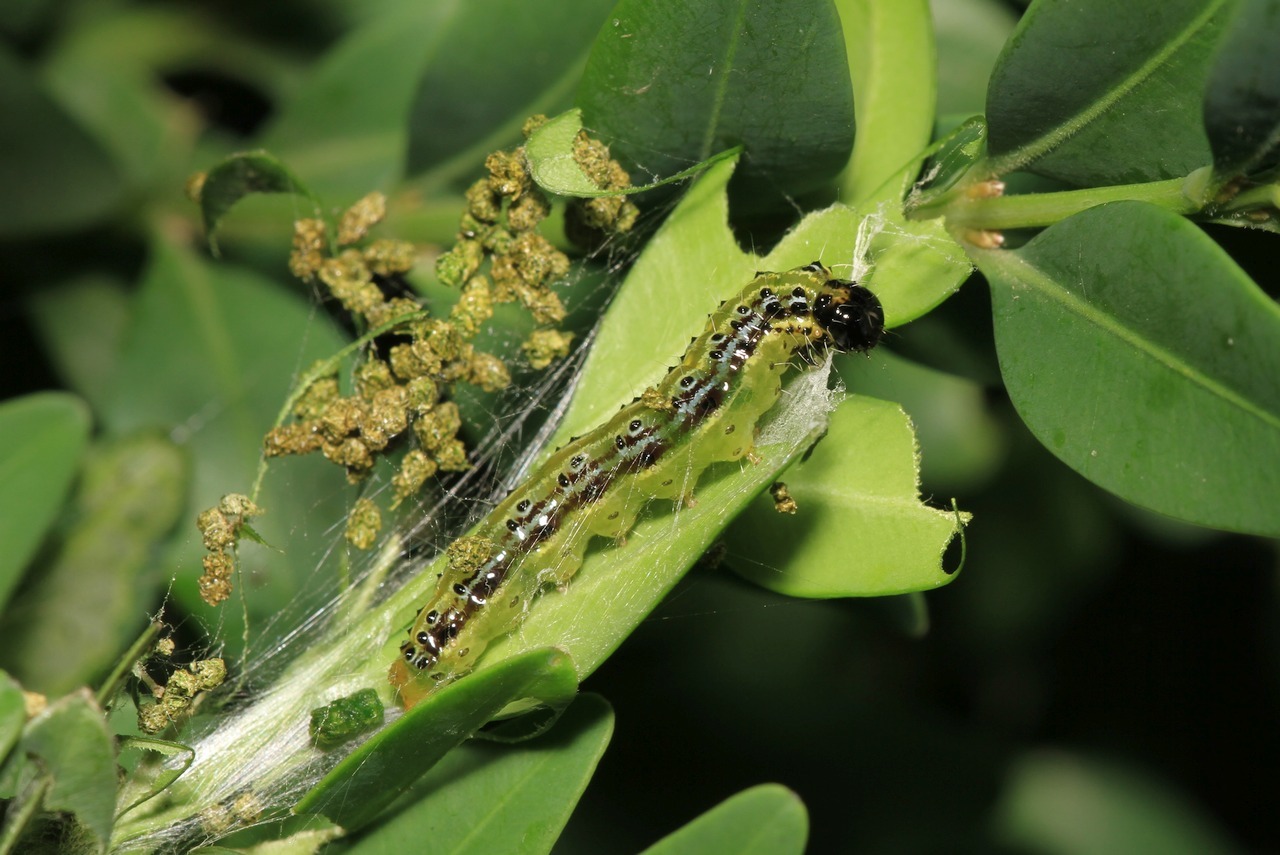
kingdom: Animalia
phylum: Arthropoda
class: Insecta
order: Lepidoptera
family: Crambidae
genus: Cydalima
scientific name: Cydalima perspectalis
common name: Box tree moth
